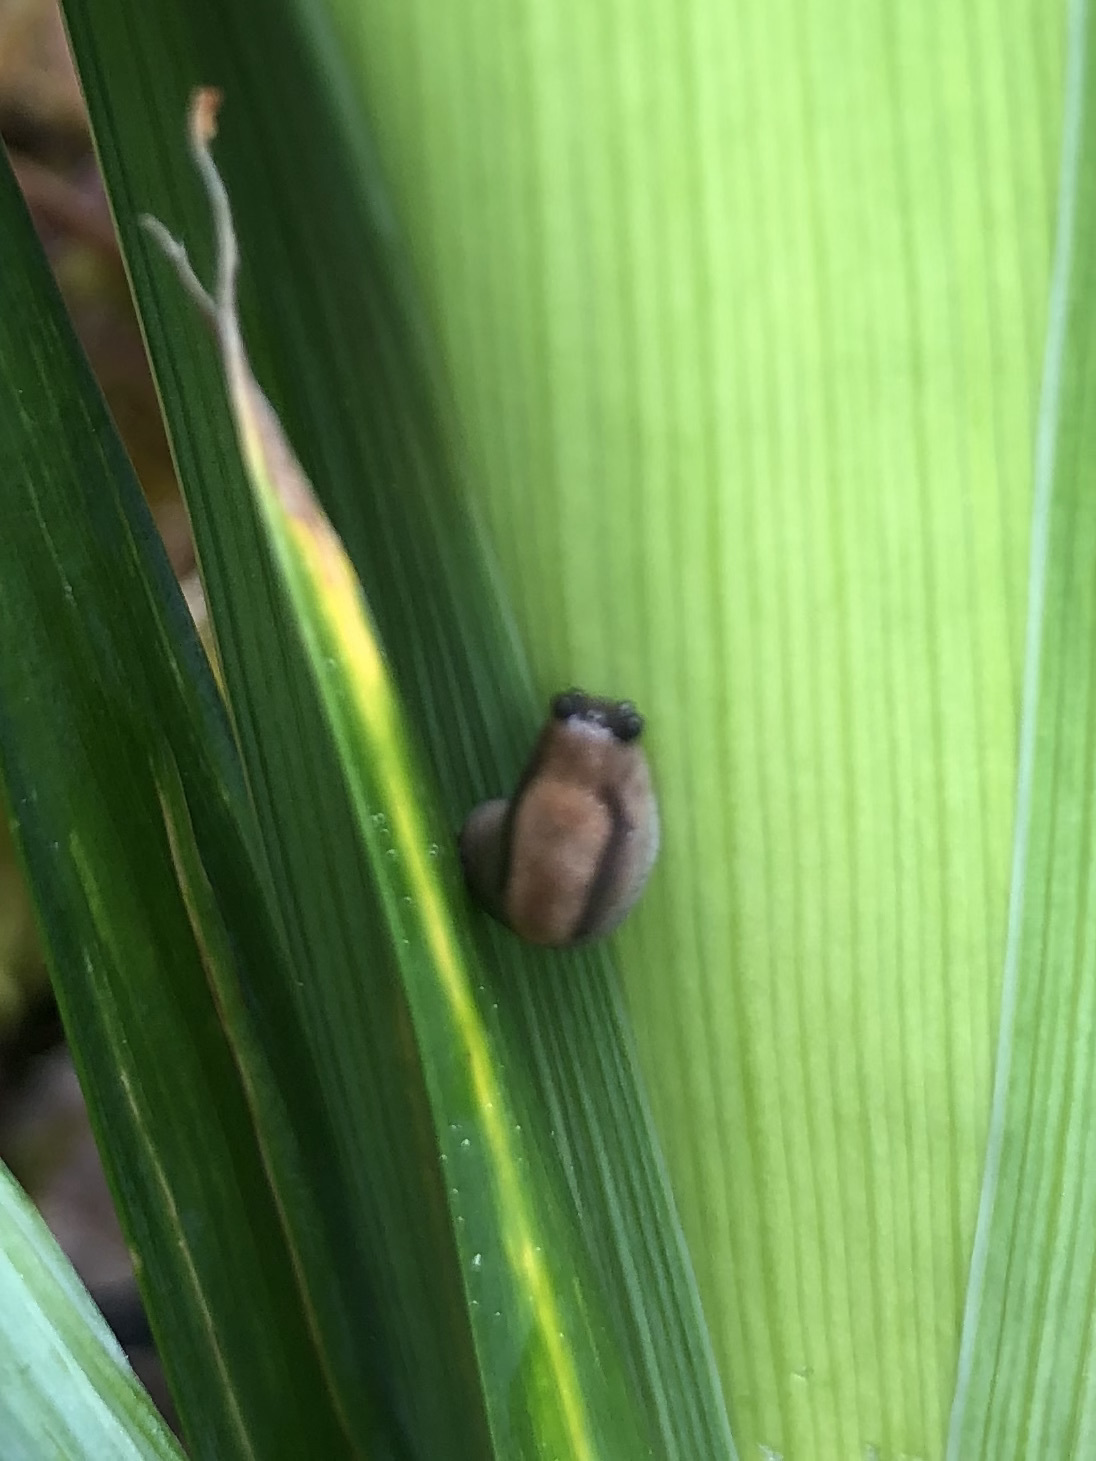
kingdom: Animalia
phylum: Mollusca
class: Gastropoda
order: Stylommatophora
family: Ariolimacidae
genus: Prophysaon
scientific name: Prophysaon andersonii
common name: Reticulate taildropper
